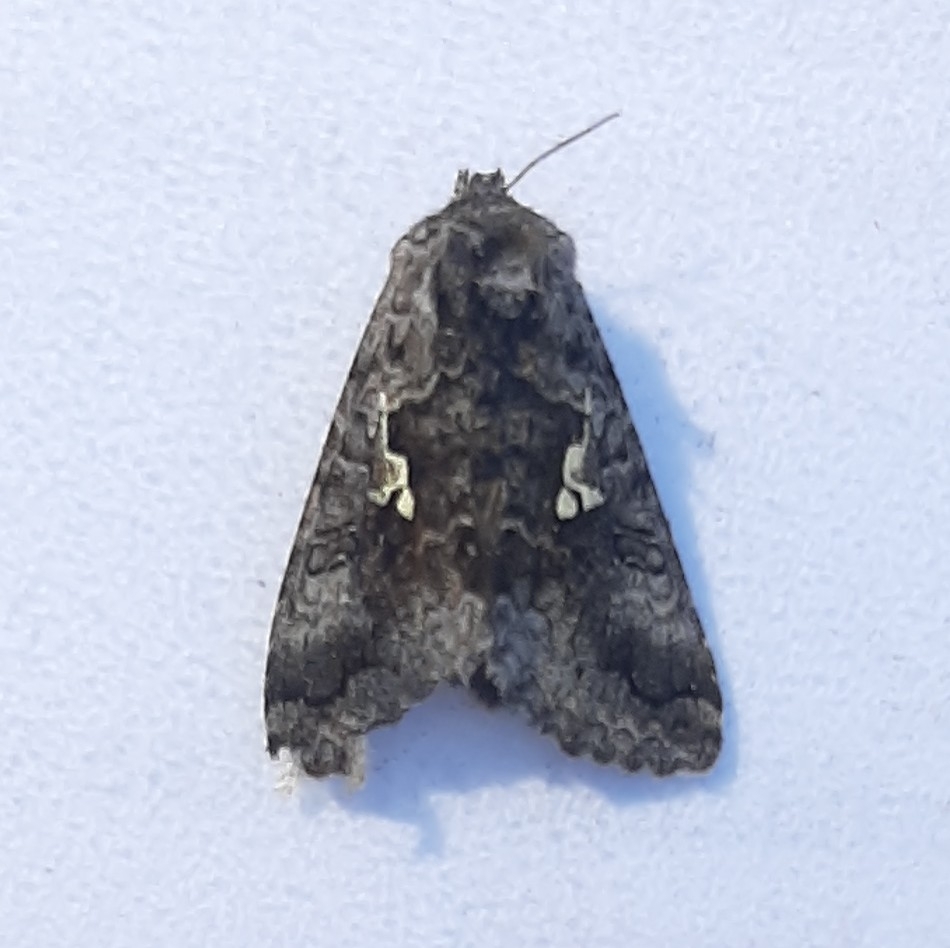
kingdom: Animalia
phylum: Arthropoda
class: Insecta
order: Lepidoptera
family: Noctuidae
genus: Syngrapha
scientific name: Syngrapha interrogationis
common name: Scarce silver y
